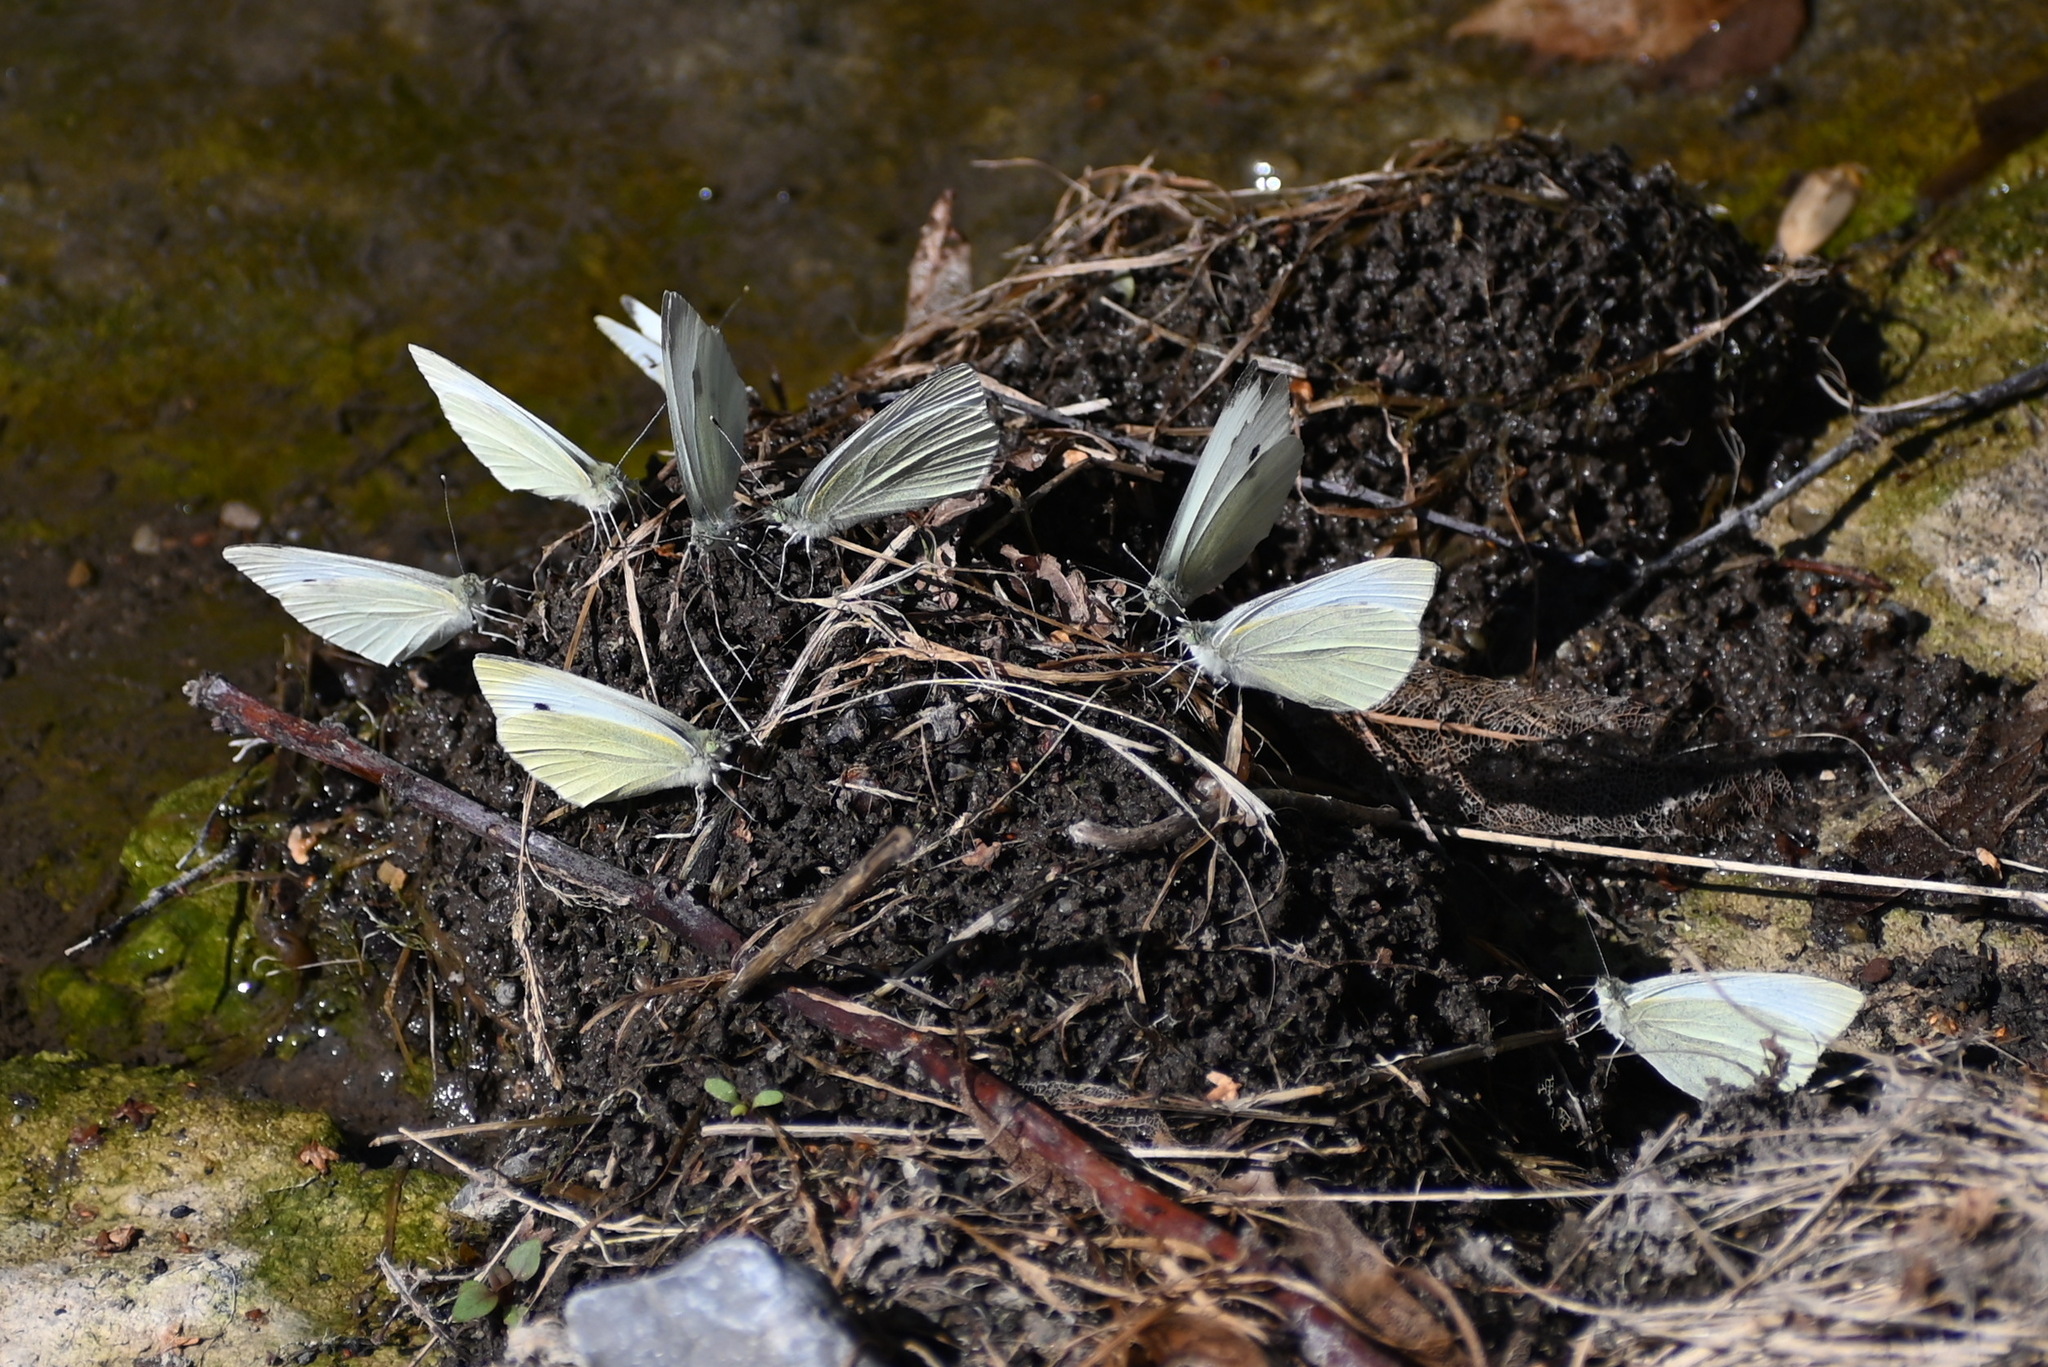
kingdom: Animalia
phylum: Arthropoda
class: Insecta
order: Lepidoptera
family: Pieridae
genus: Pieris
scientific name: Pieris rapae
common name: Small white
